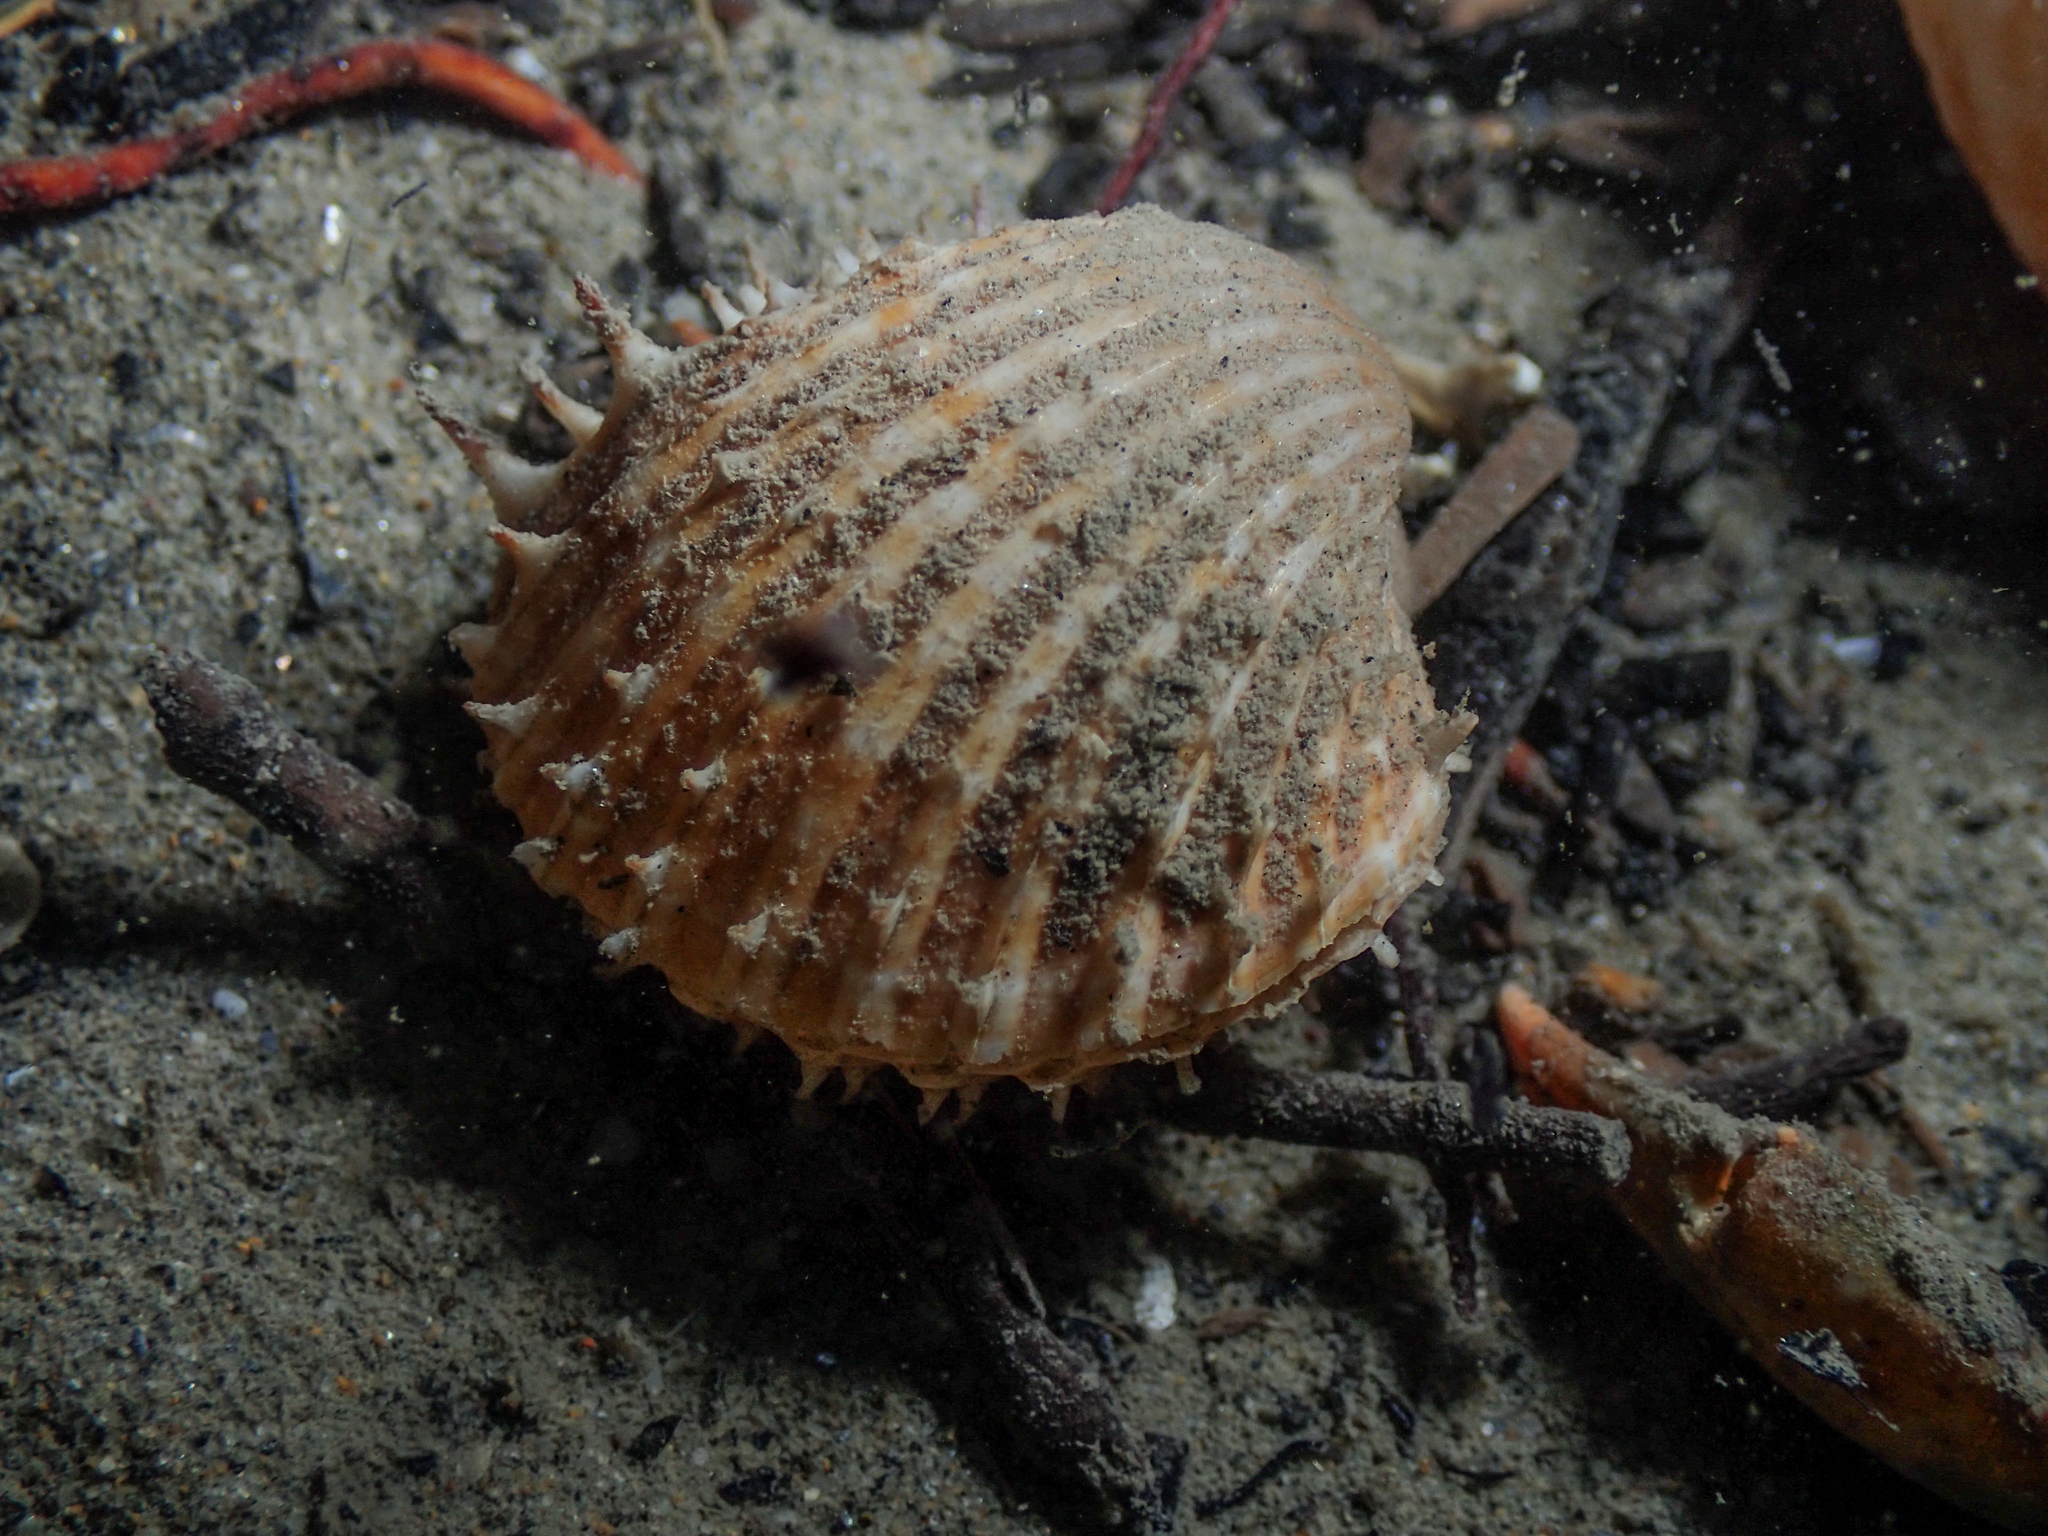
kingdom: Animalia
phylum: Mollusca
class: Bivalvia
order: Cardiida
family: Cardiidae
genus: Acanthocardia
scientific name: Acanthocardia aculeata
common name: Spiny cockle
